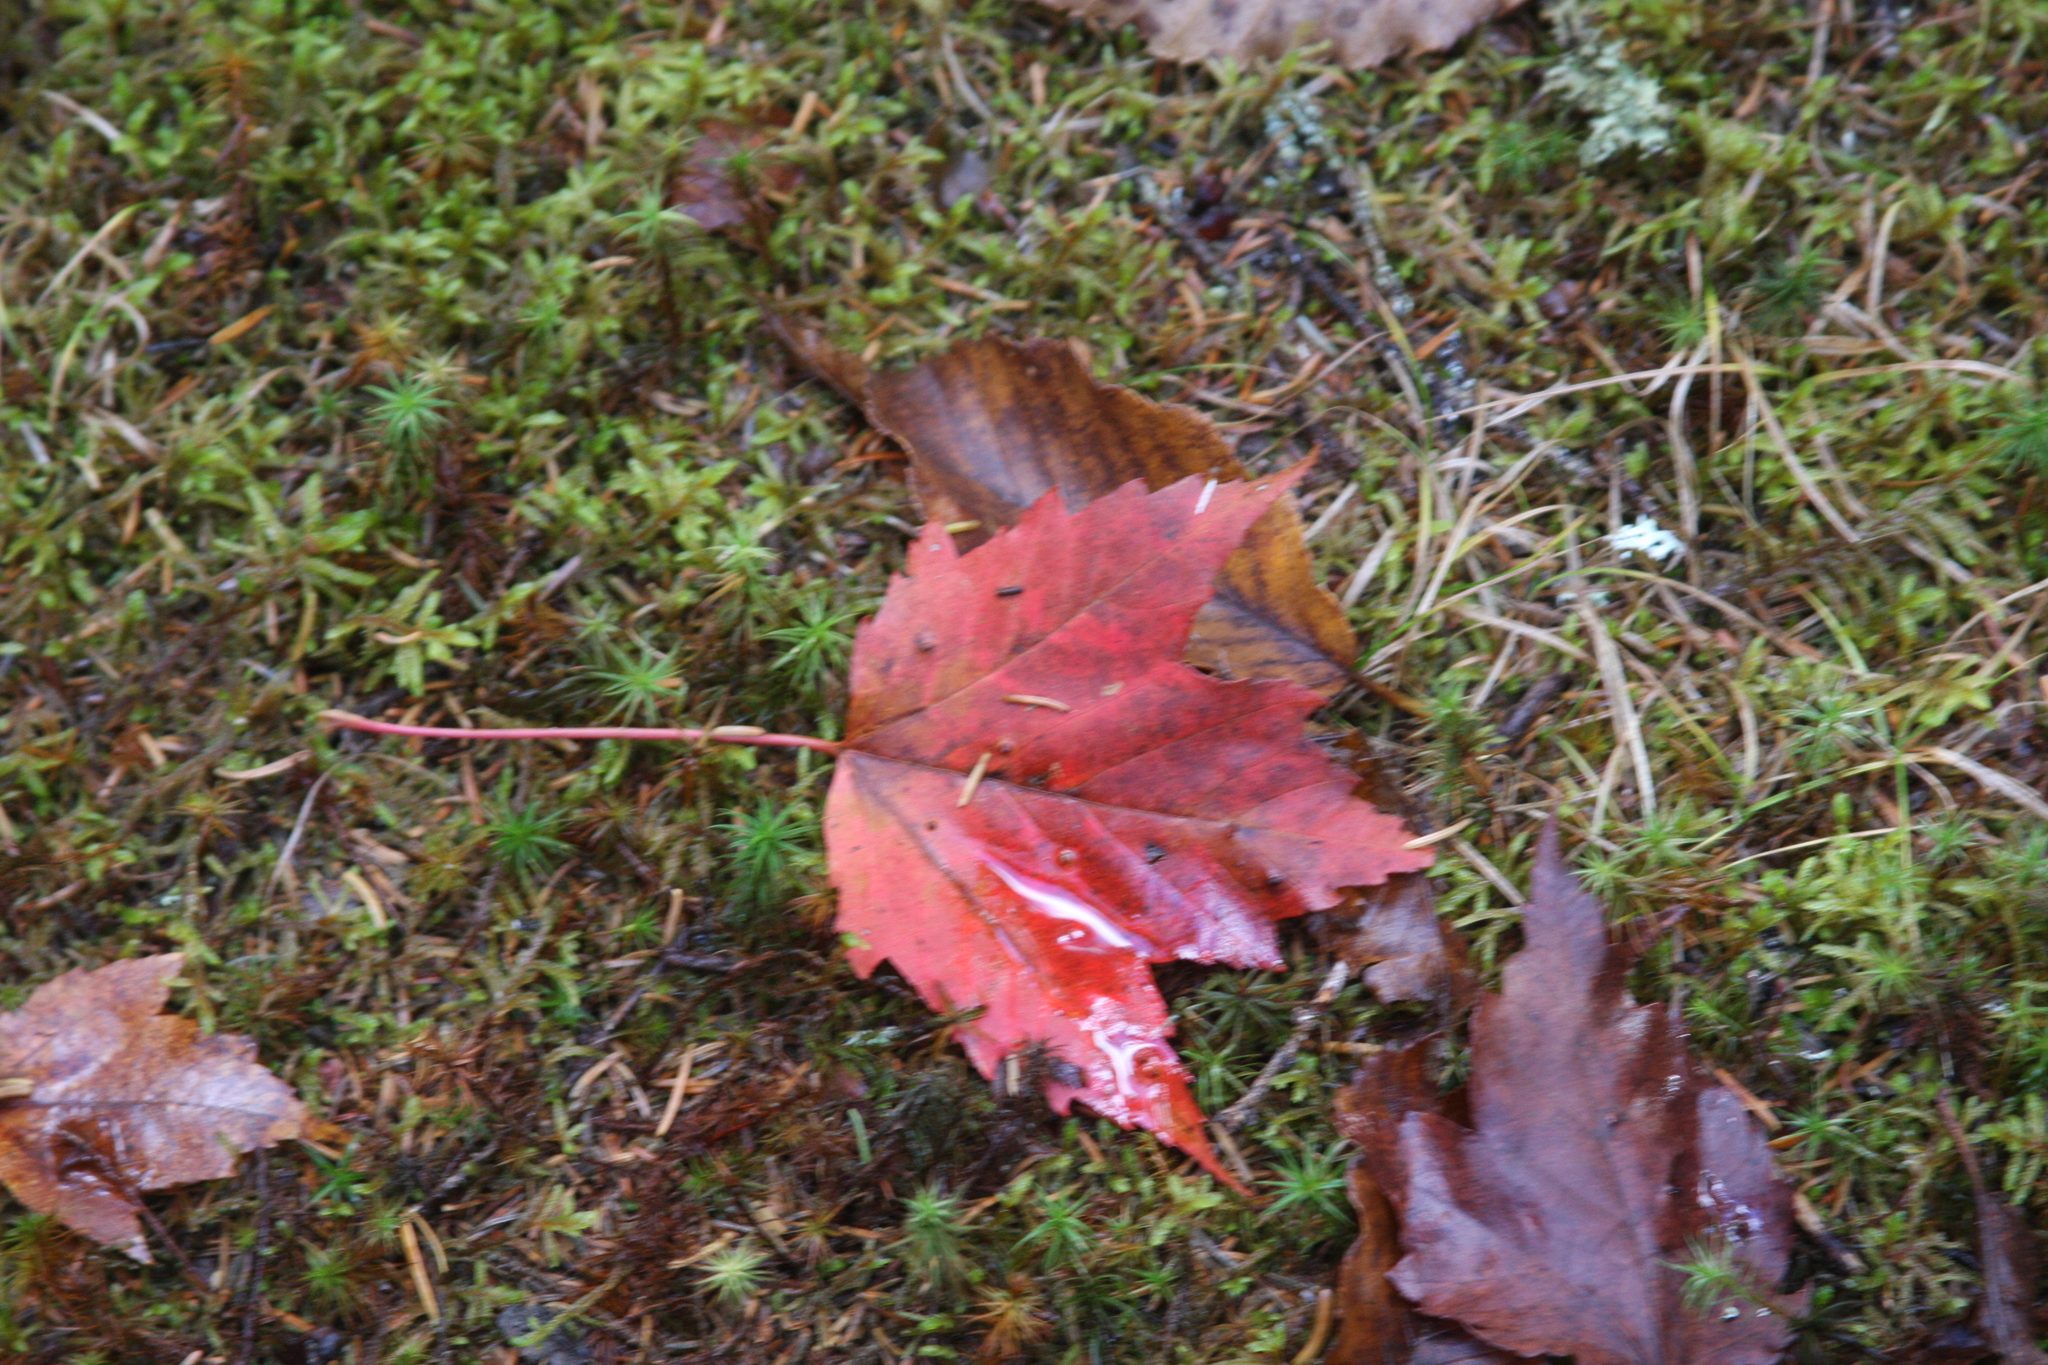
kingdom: Plantae
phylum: Tracheophyta
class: Magnoliopsida
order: Sapindales
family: Sapindaceae
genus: Acer
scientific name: Acer rubrum
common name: Red maple
